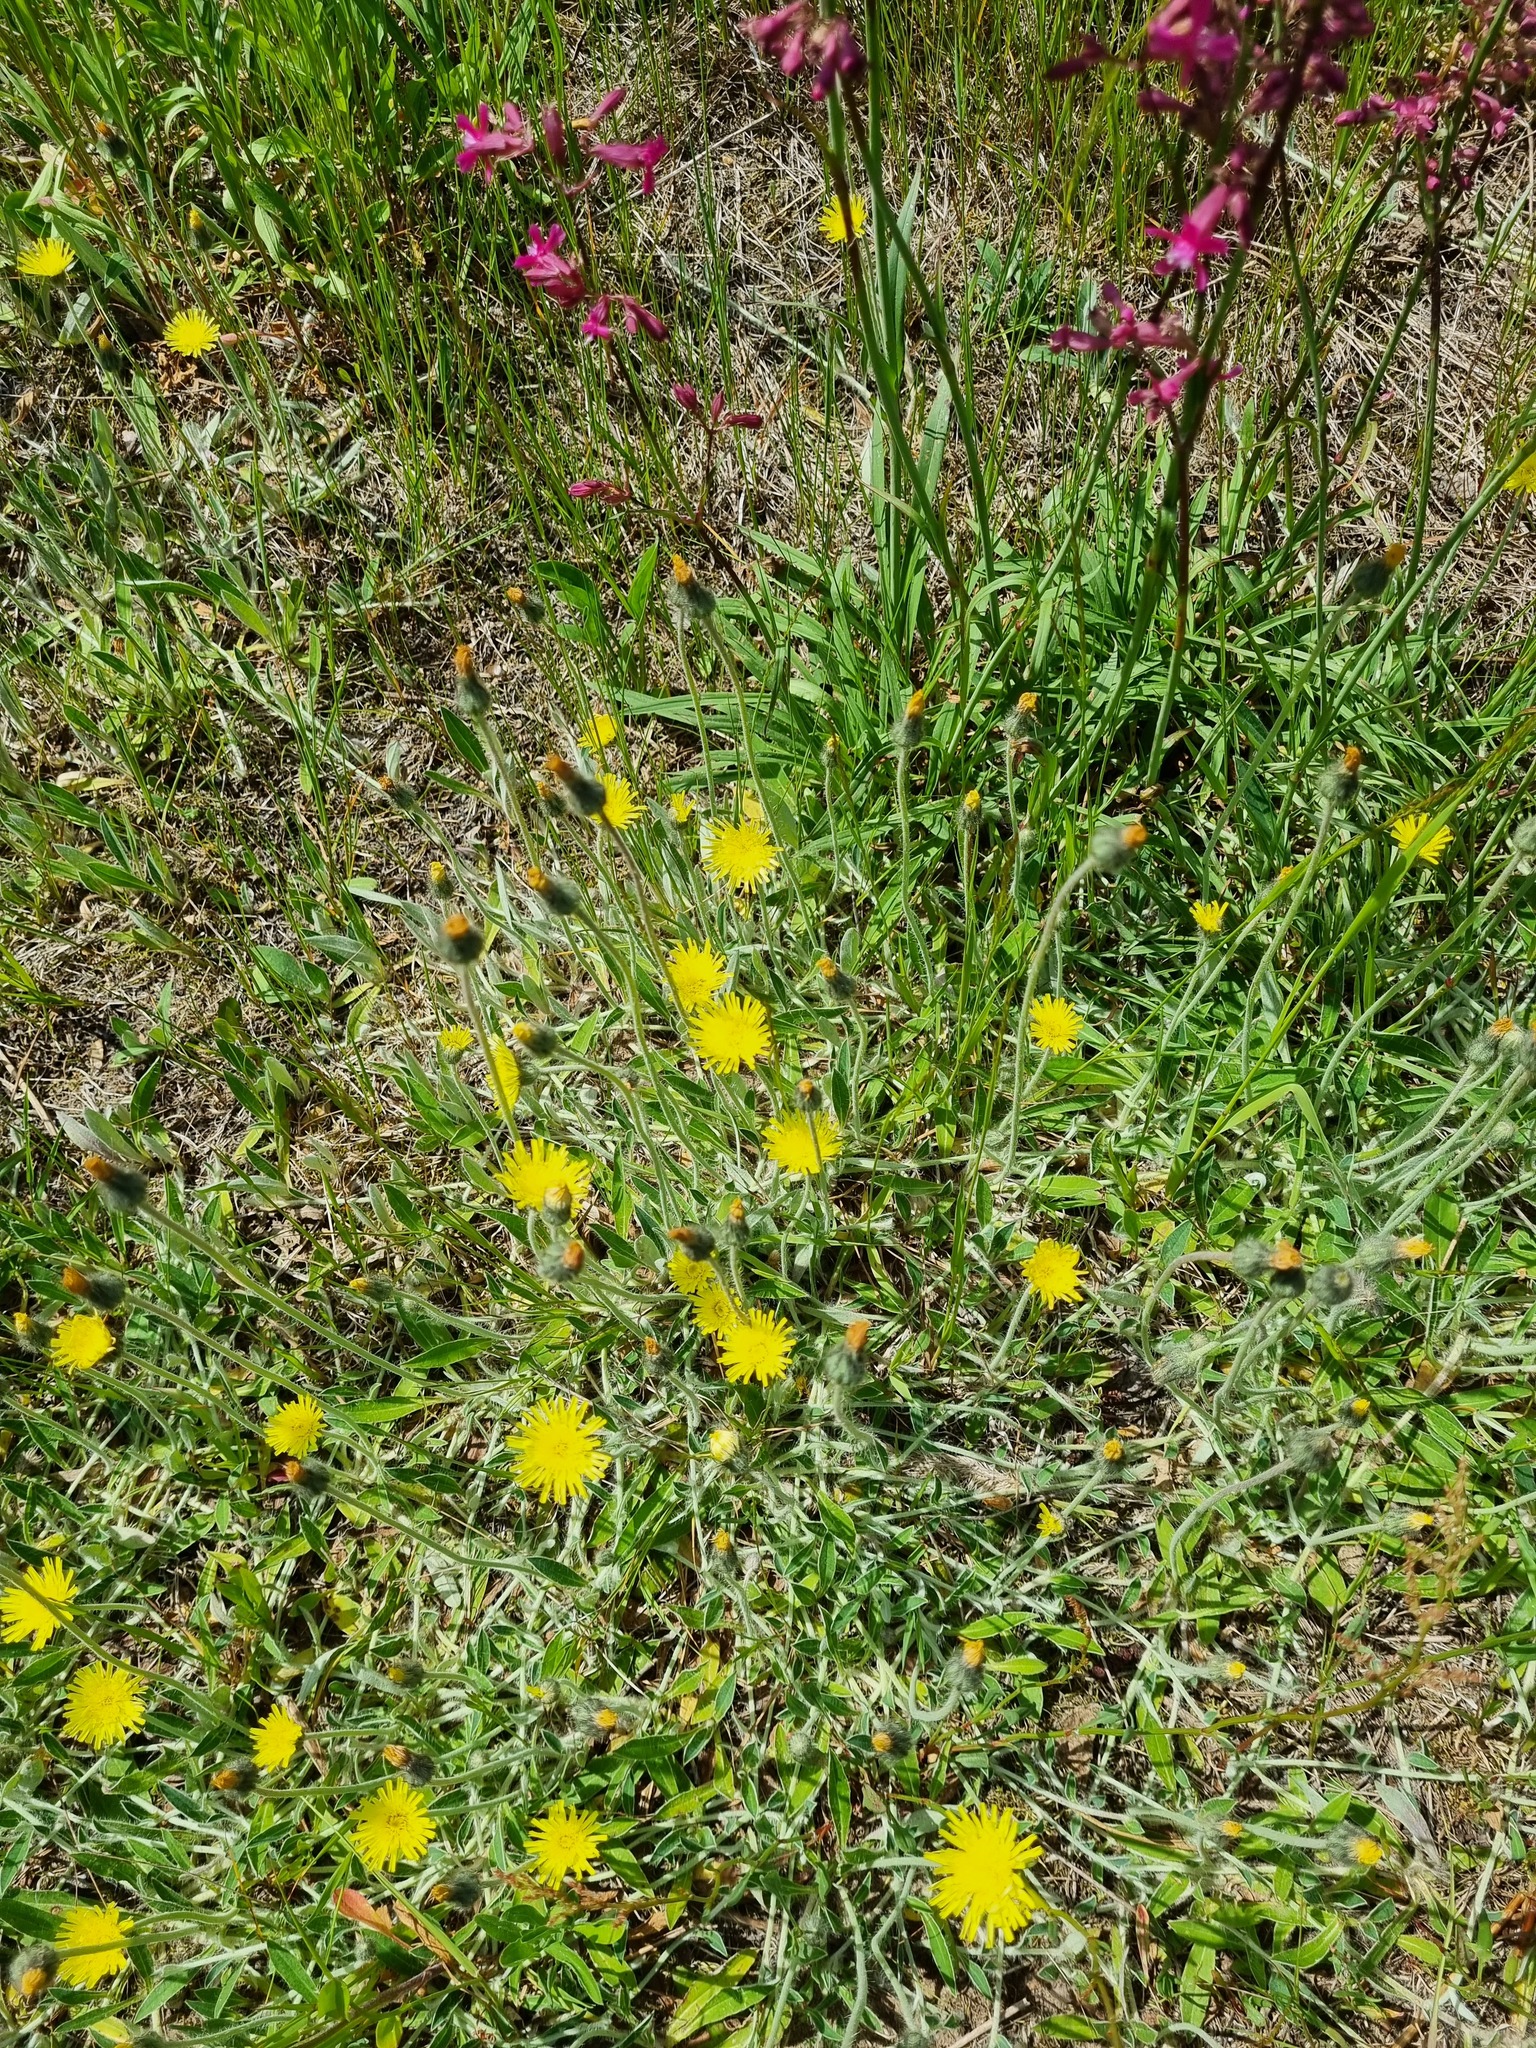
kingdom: Plantae
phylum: Tracheophyta
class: Magnoliopsida
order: Asterales
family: Asteraceae
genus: Pilosella
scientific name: Pilosella officinarum
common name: Mouse-ear hawkweed
